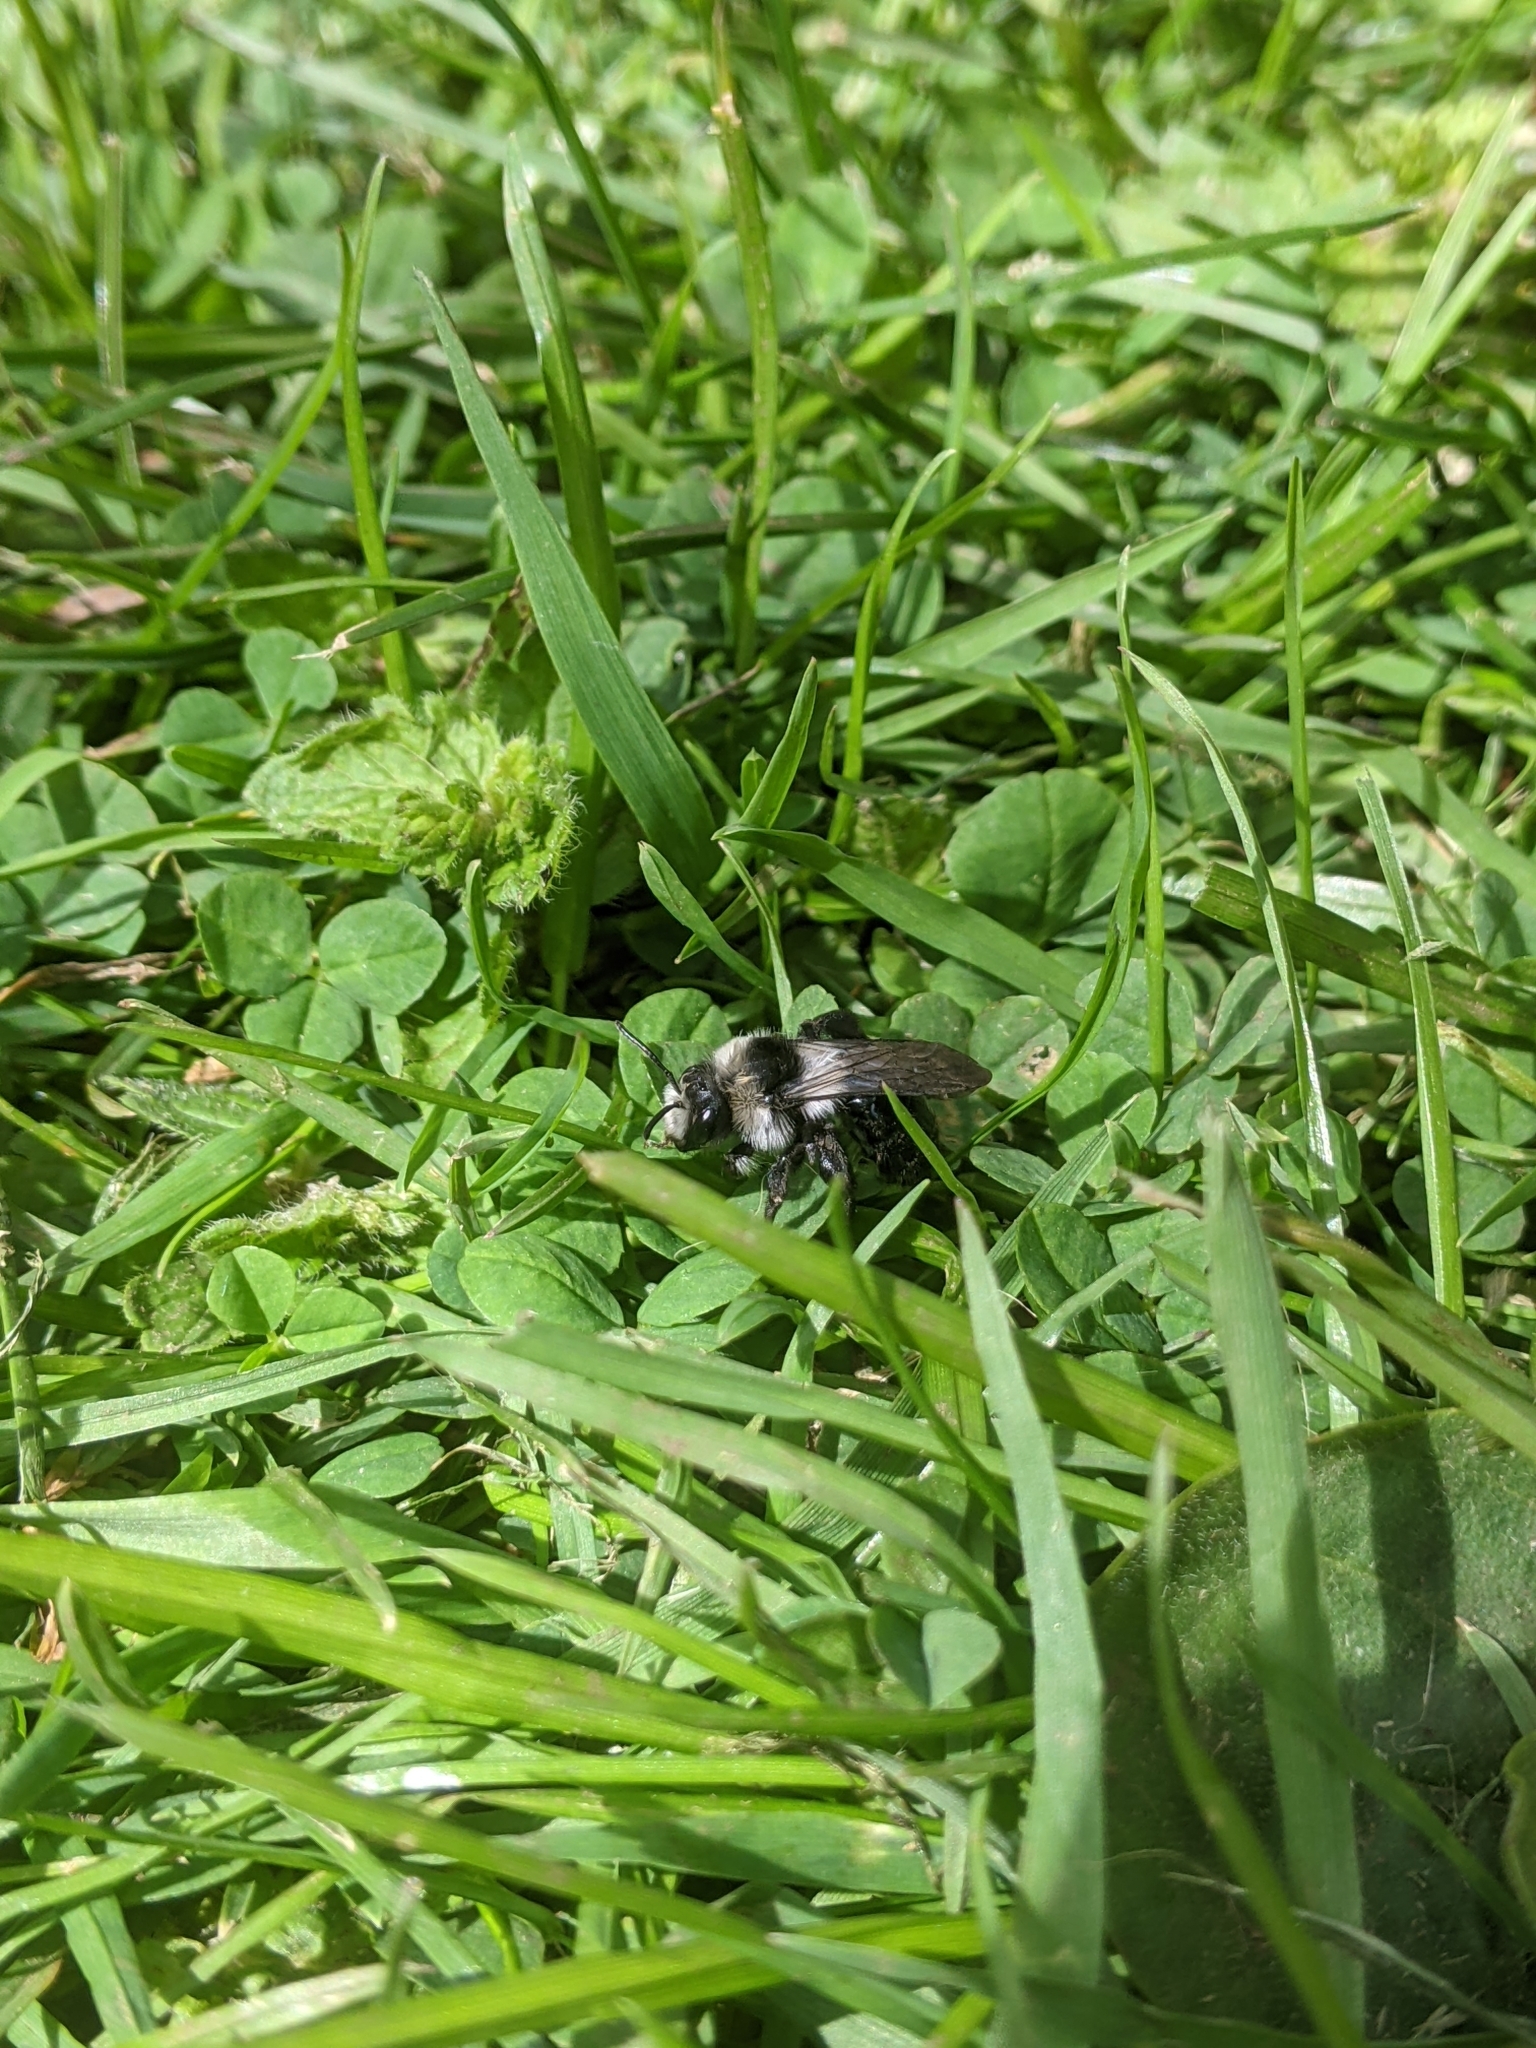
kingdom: Animalia
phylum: Arthropoda
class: Insecta
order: Hymenoptera
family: Andrenidae
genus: Andrena
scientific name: Andrena cineraria
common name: Ashy mining bee
